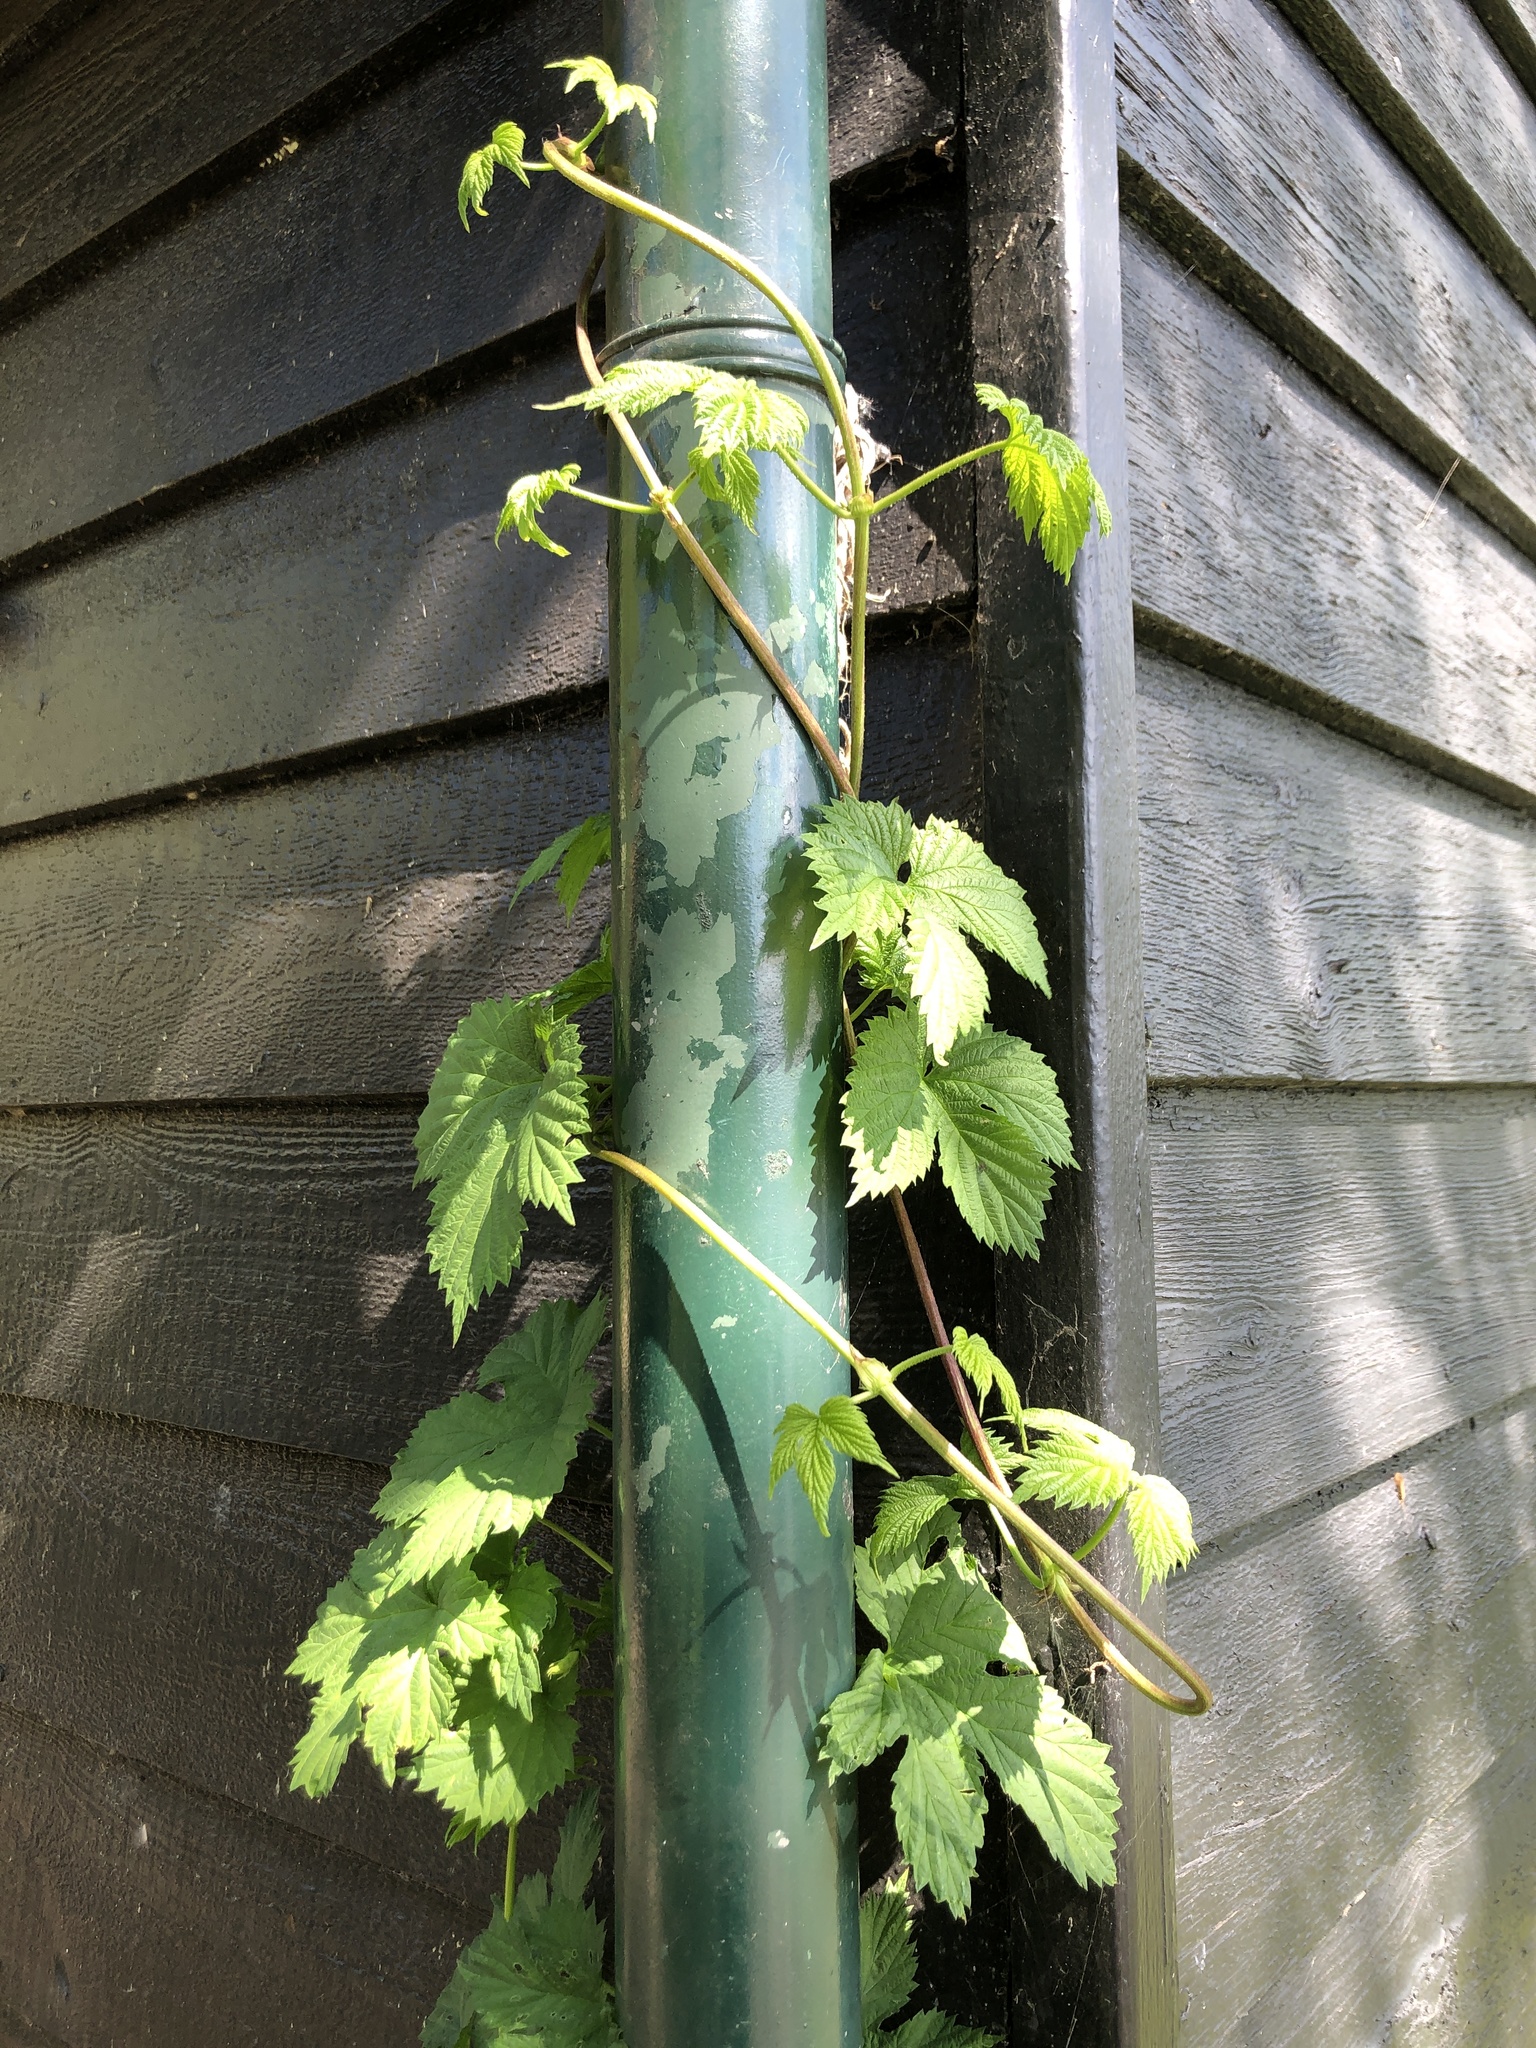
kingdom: Plantae
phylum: Tracheophyta
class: Magnoliopsida
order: Rosales
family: Cannabaceae
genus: Humulus
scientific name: Humulus lupulus
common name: Hop
